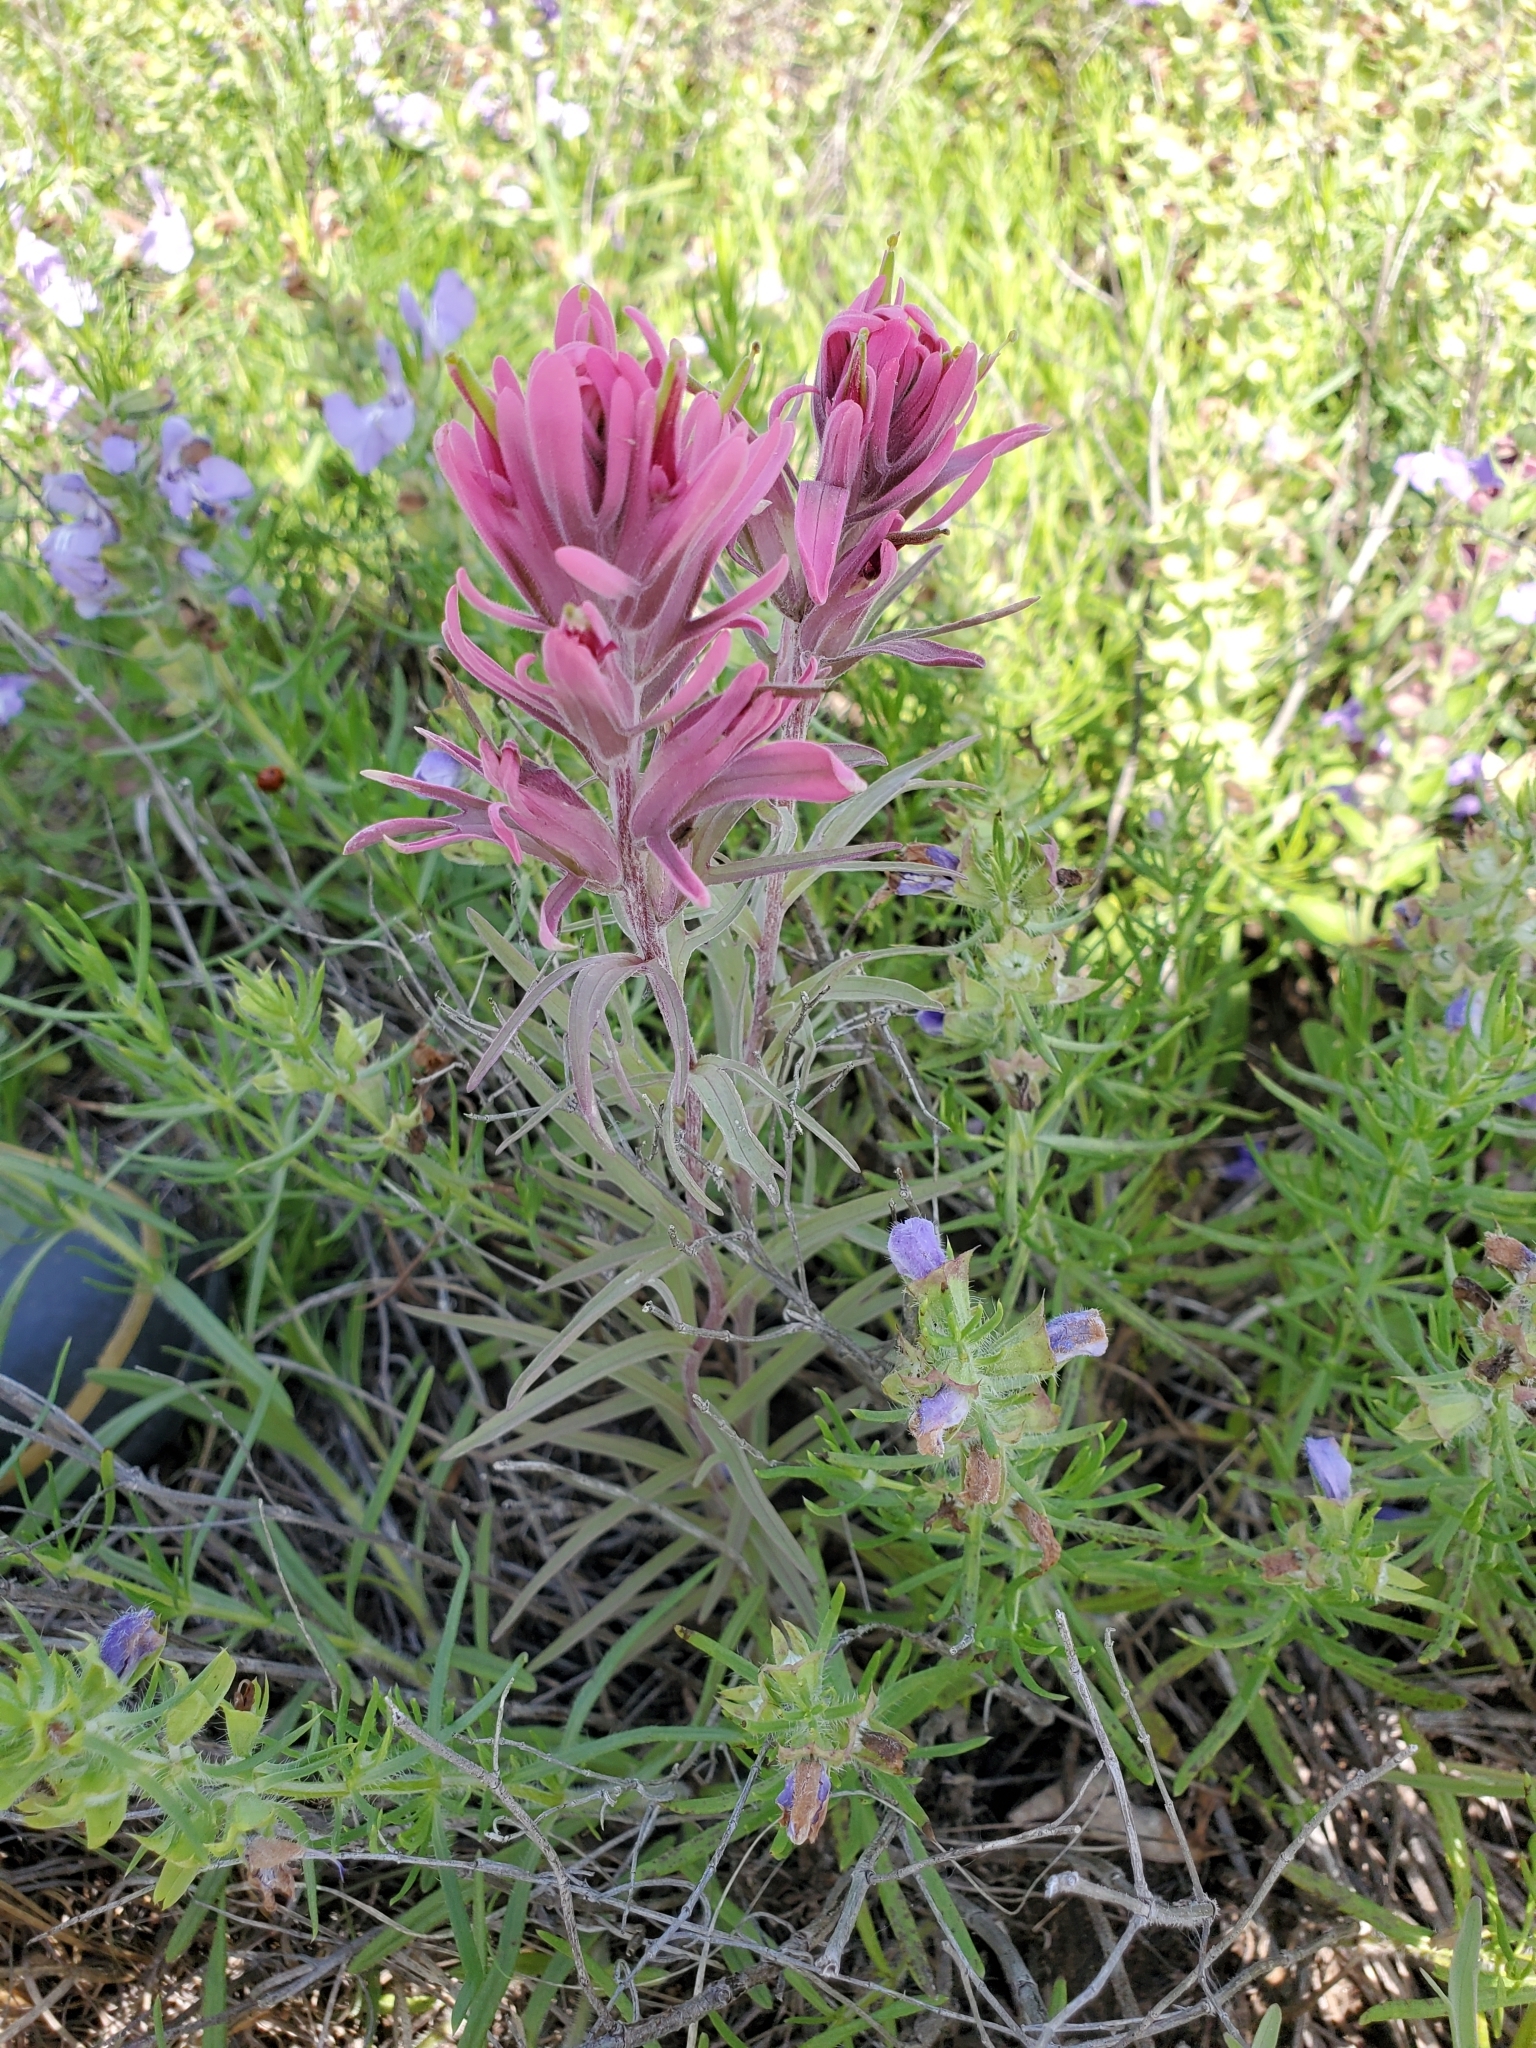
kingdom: Plantae
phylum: Tracheophyta
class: Magnoliopsida
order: Lamiales
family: Orobanchaceae
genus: Castilleja
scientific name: Castilleja purpurea
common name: Plains paintbrush
